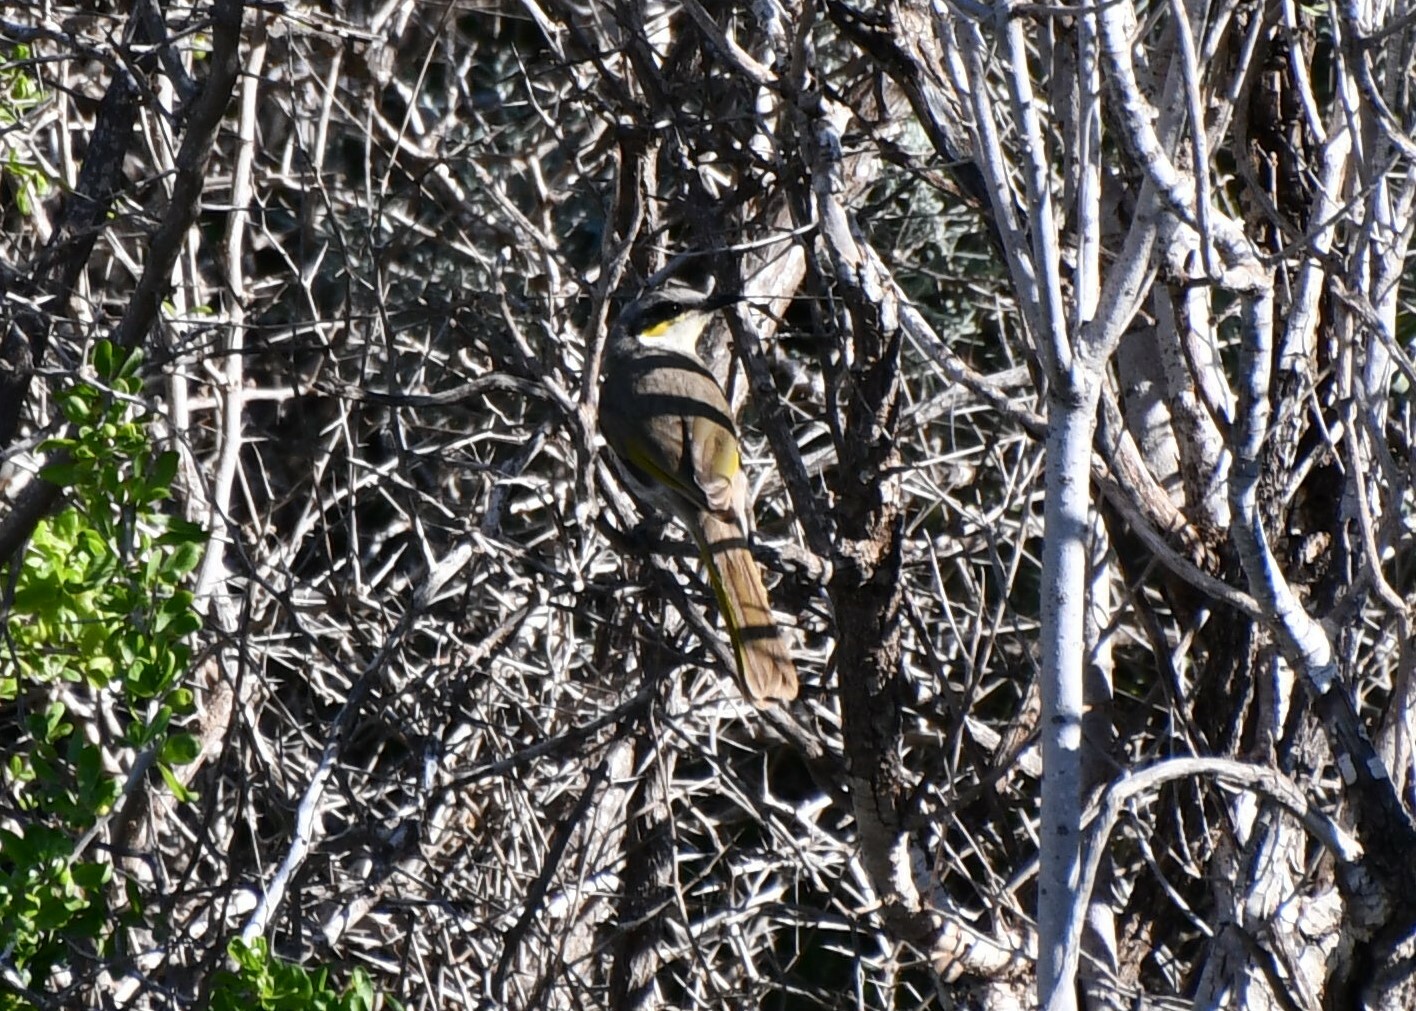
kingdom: Animalia
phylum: Chordata
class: Aves
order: Passeriformes
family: Meliphagidae
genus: Gavicalis
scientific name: Gavicalis virescens
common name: Singing honeyeater
